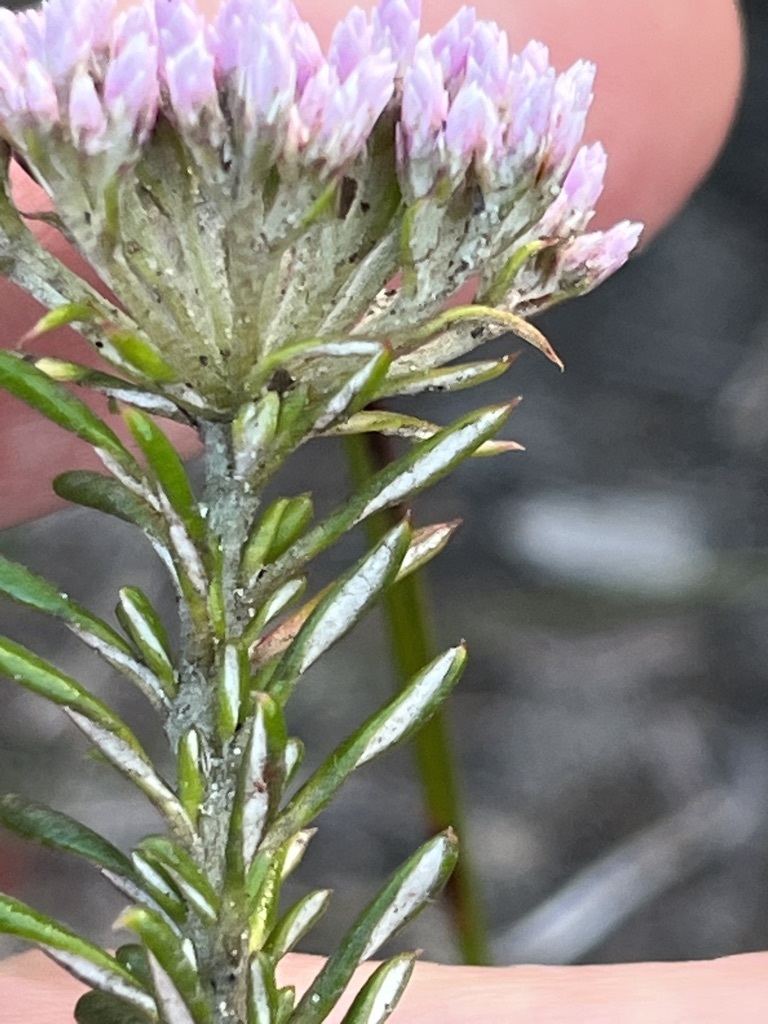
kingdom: Plantae
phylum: Tracheophyta
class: Magnoliopsida
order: Asterales
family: Asteraceae
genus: Metalasia
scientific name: Metalasia erubescens
